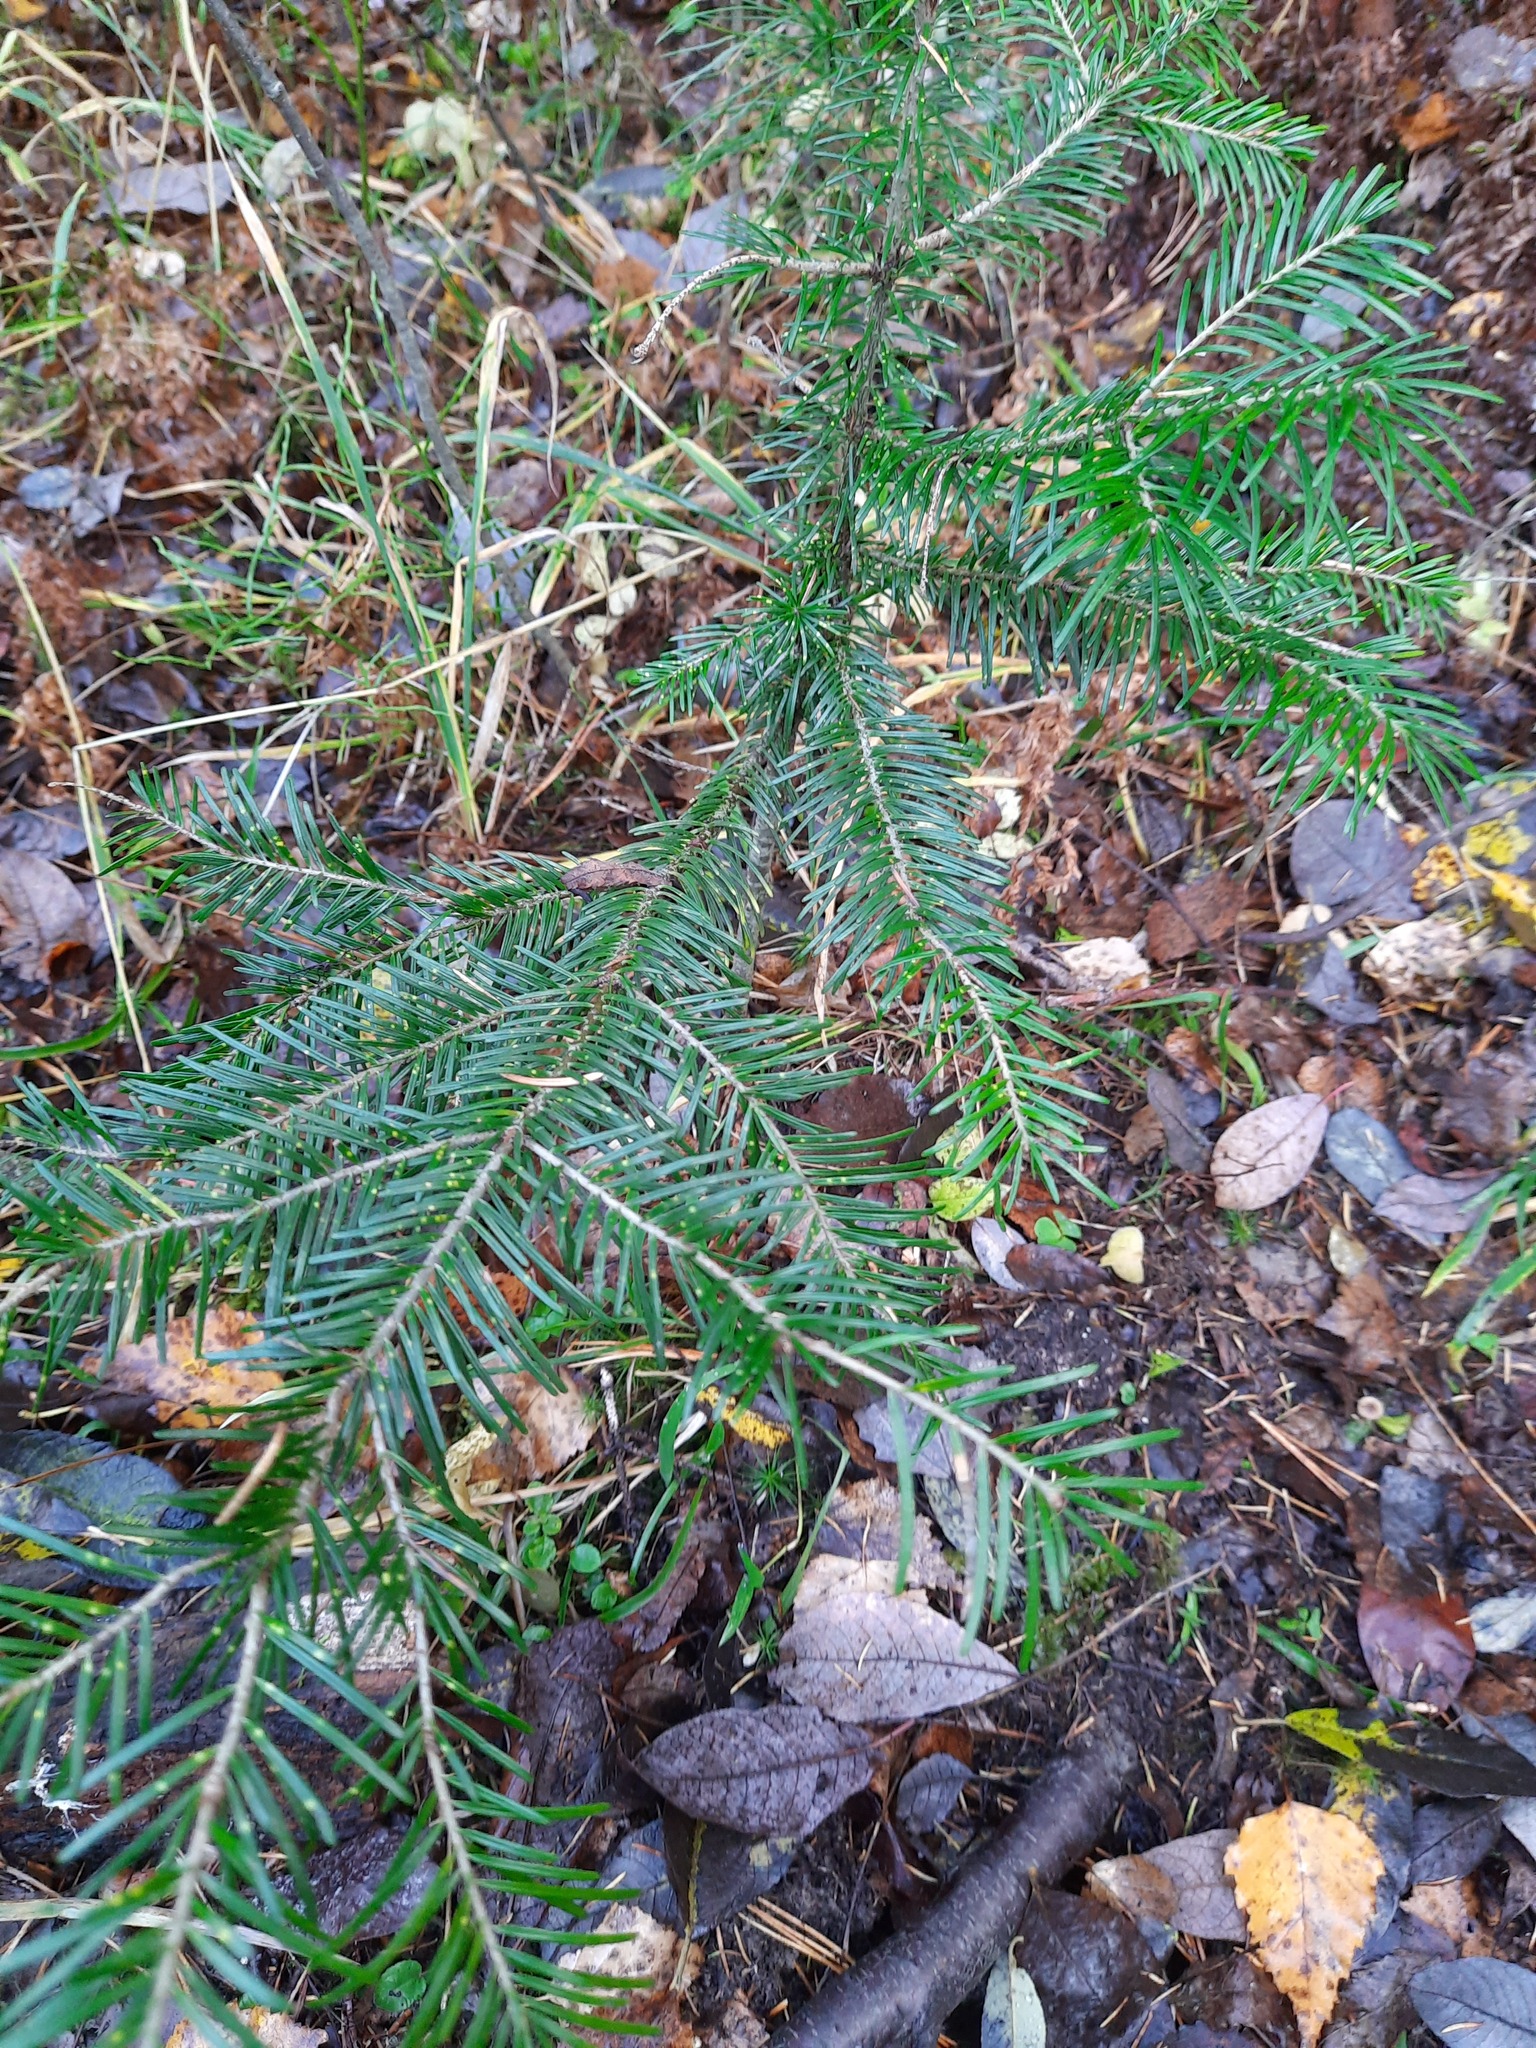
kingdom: Plantae
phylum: Tracheophyta
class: Pinopsida
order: Pinales
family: Pinaceae
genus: Abies
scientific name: Abies sibirica
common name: Siberian fir
